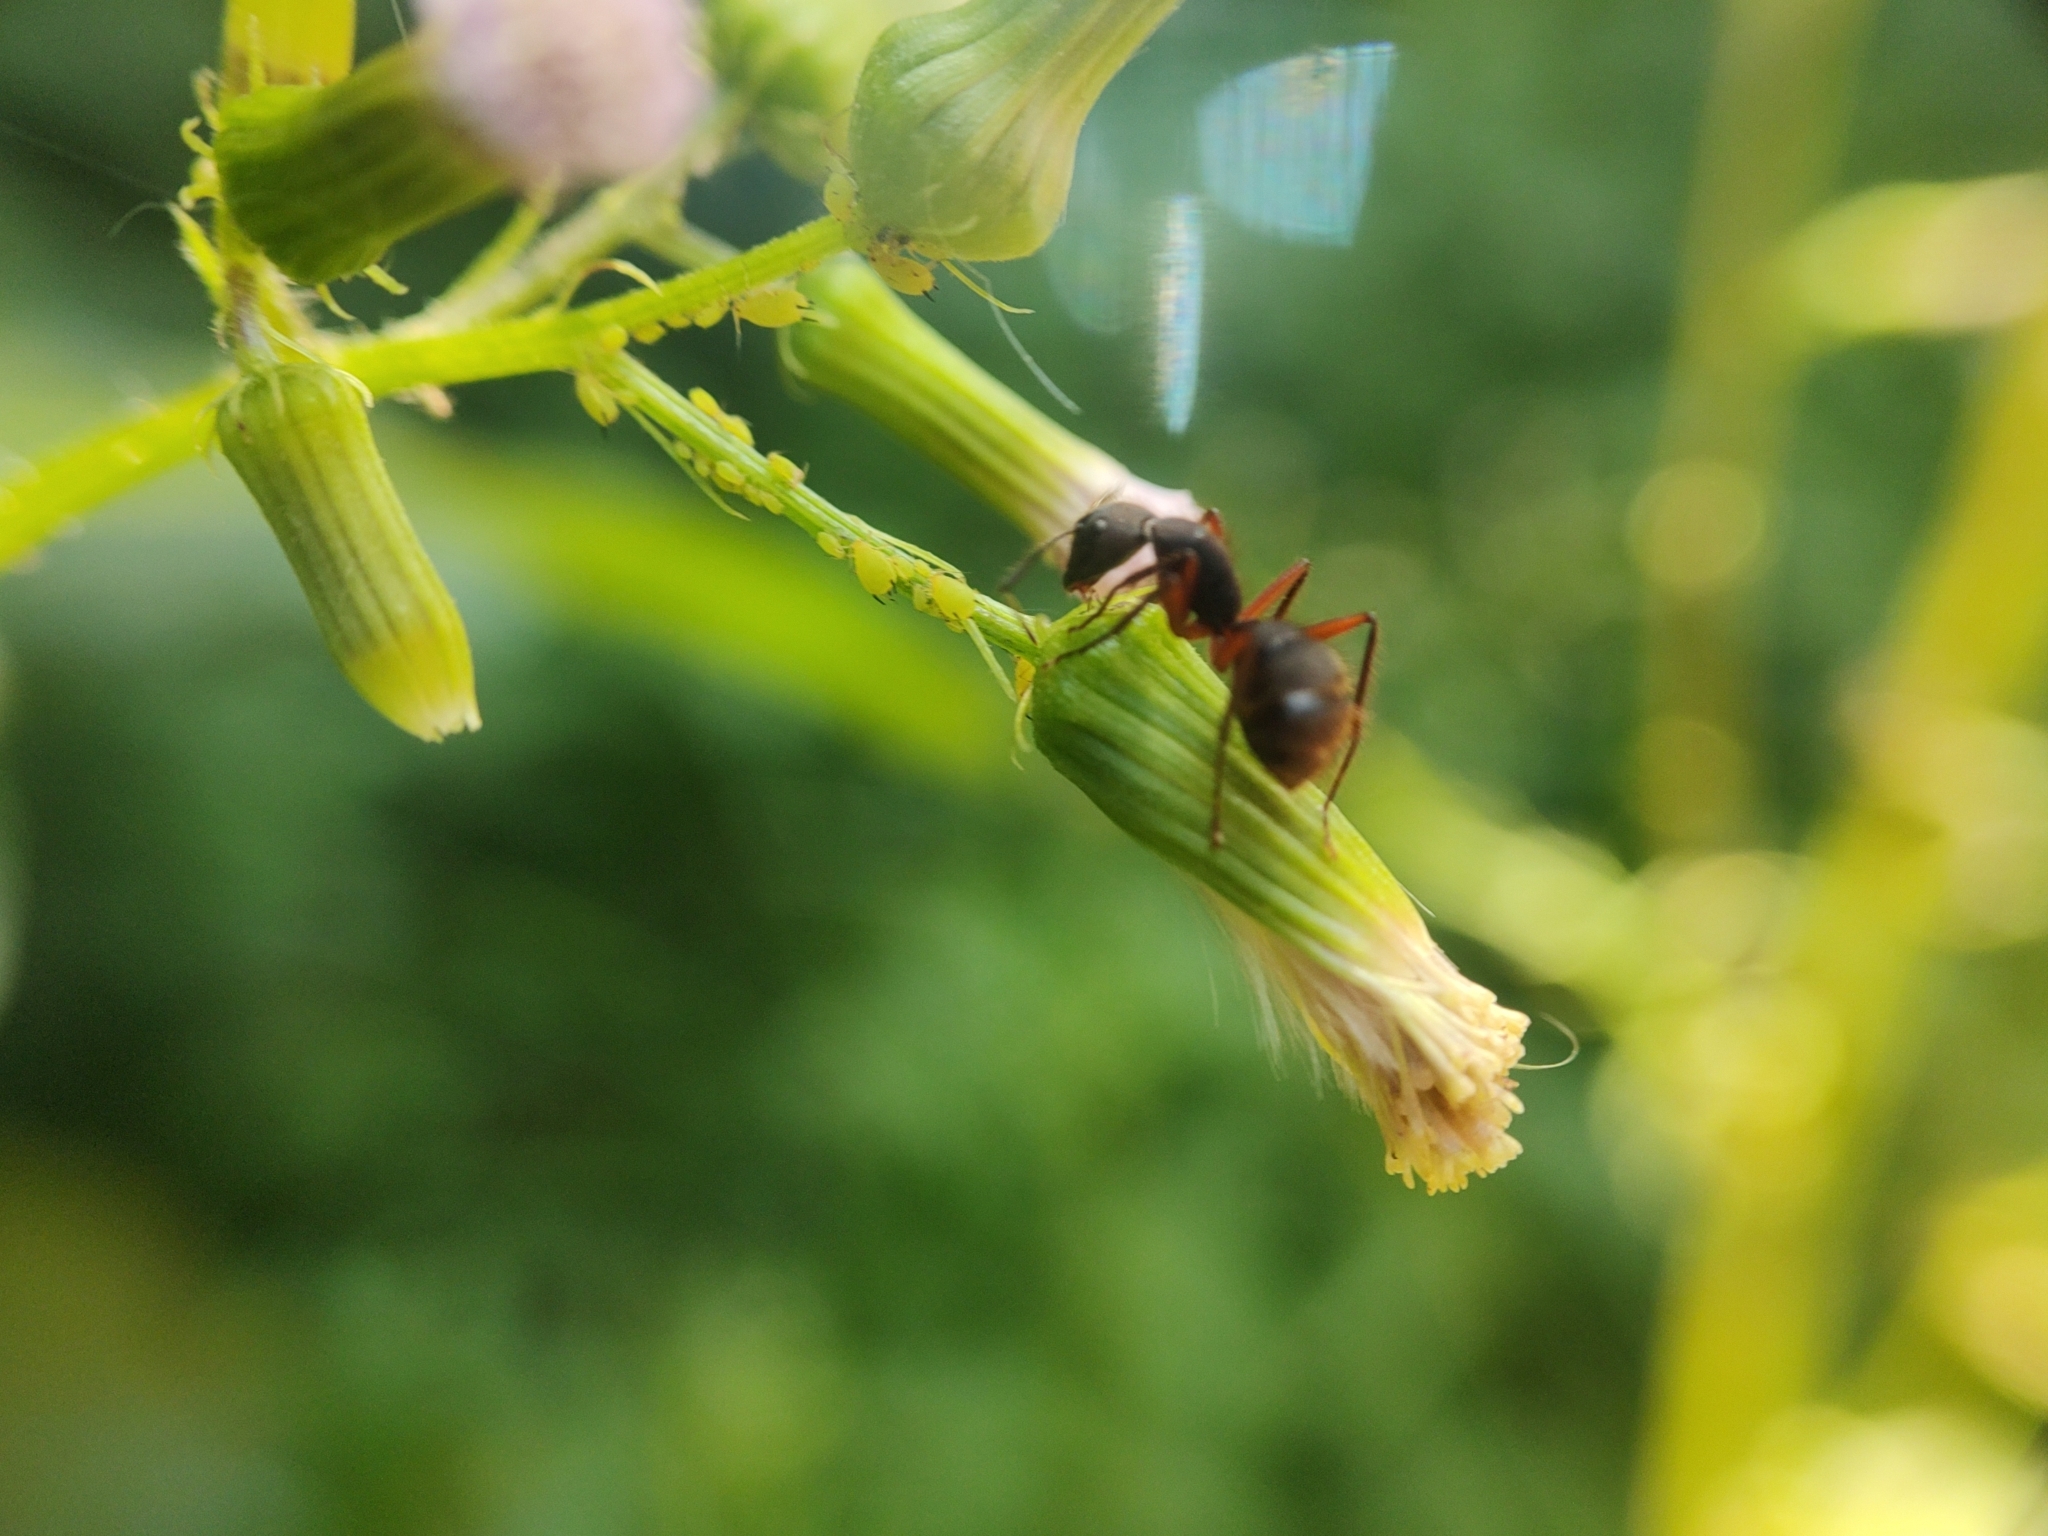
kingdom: Animalia
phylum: Arthropoda
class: Insecta
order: Hymenoptera
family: Formicidae
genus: Camponotus
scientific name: Camponotus rufipes
